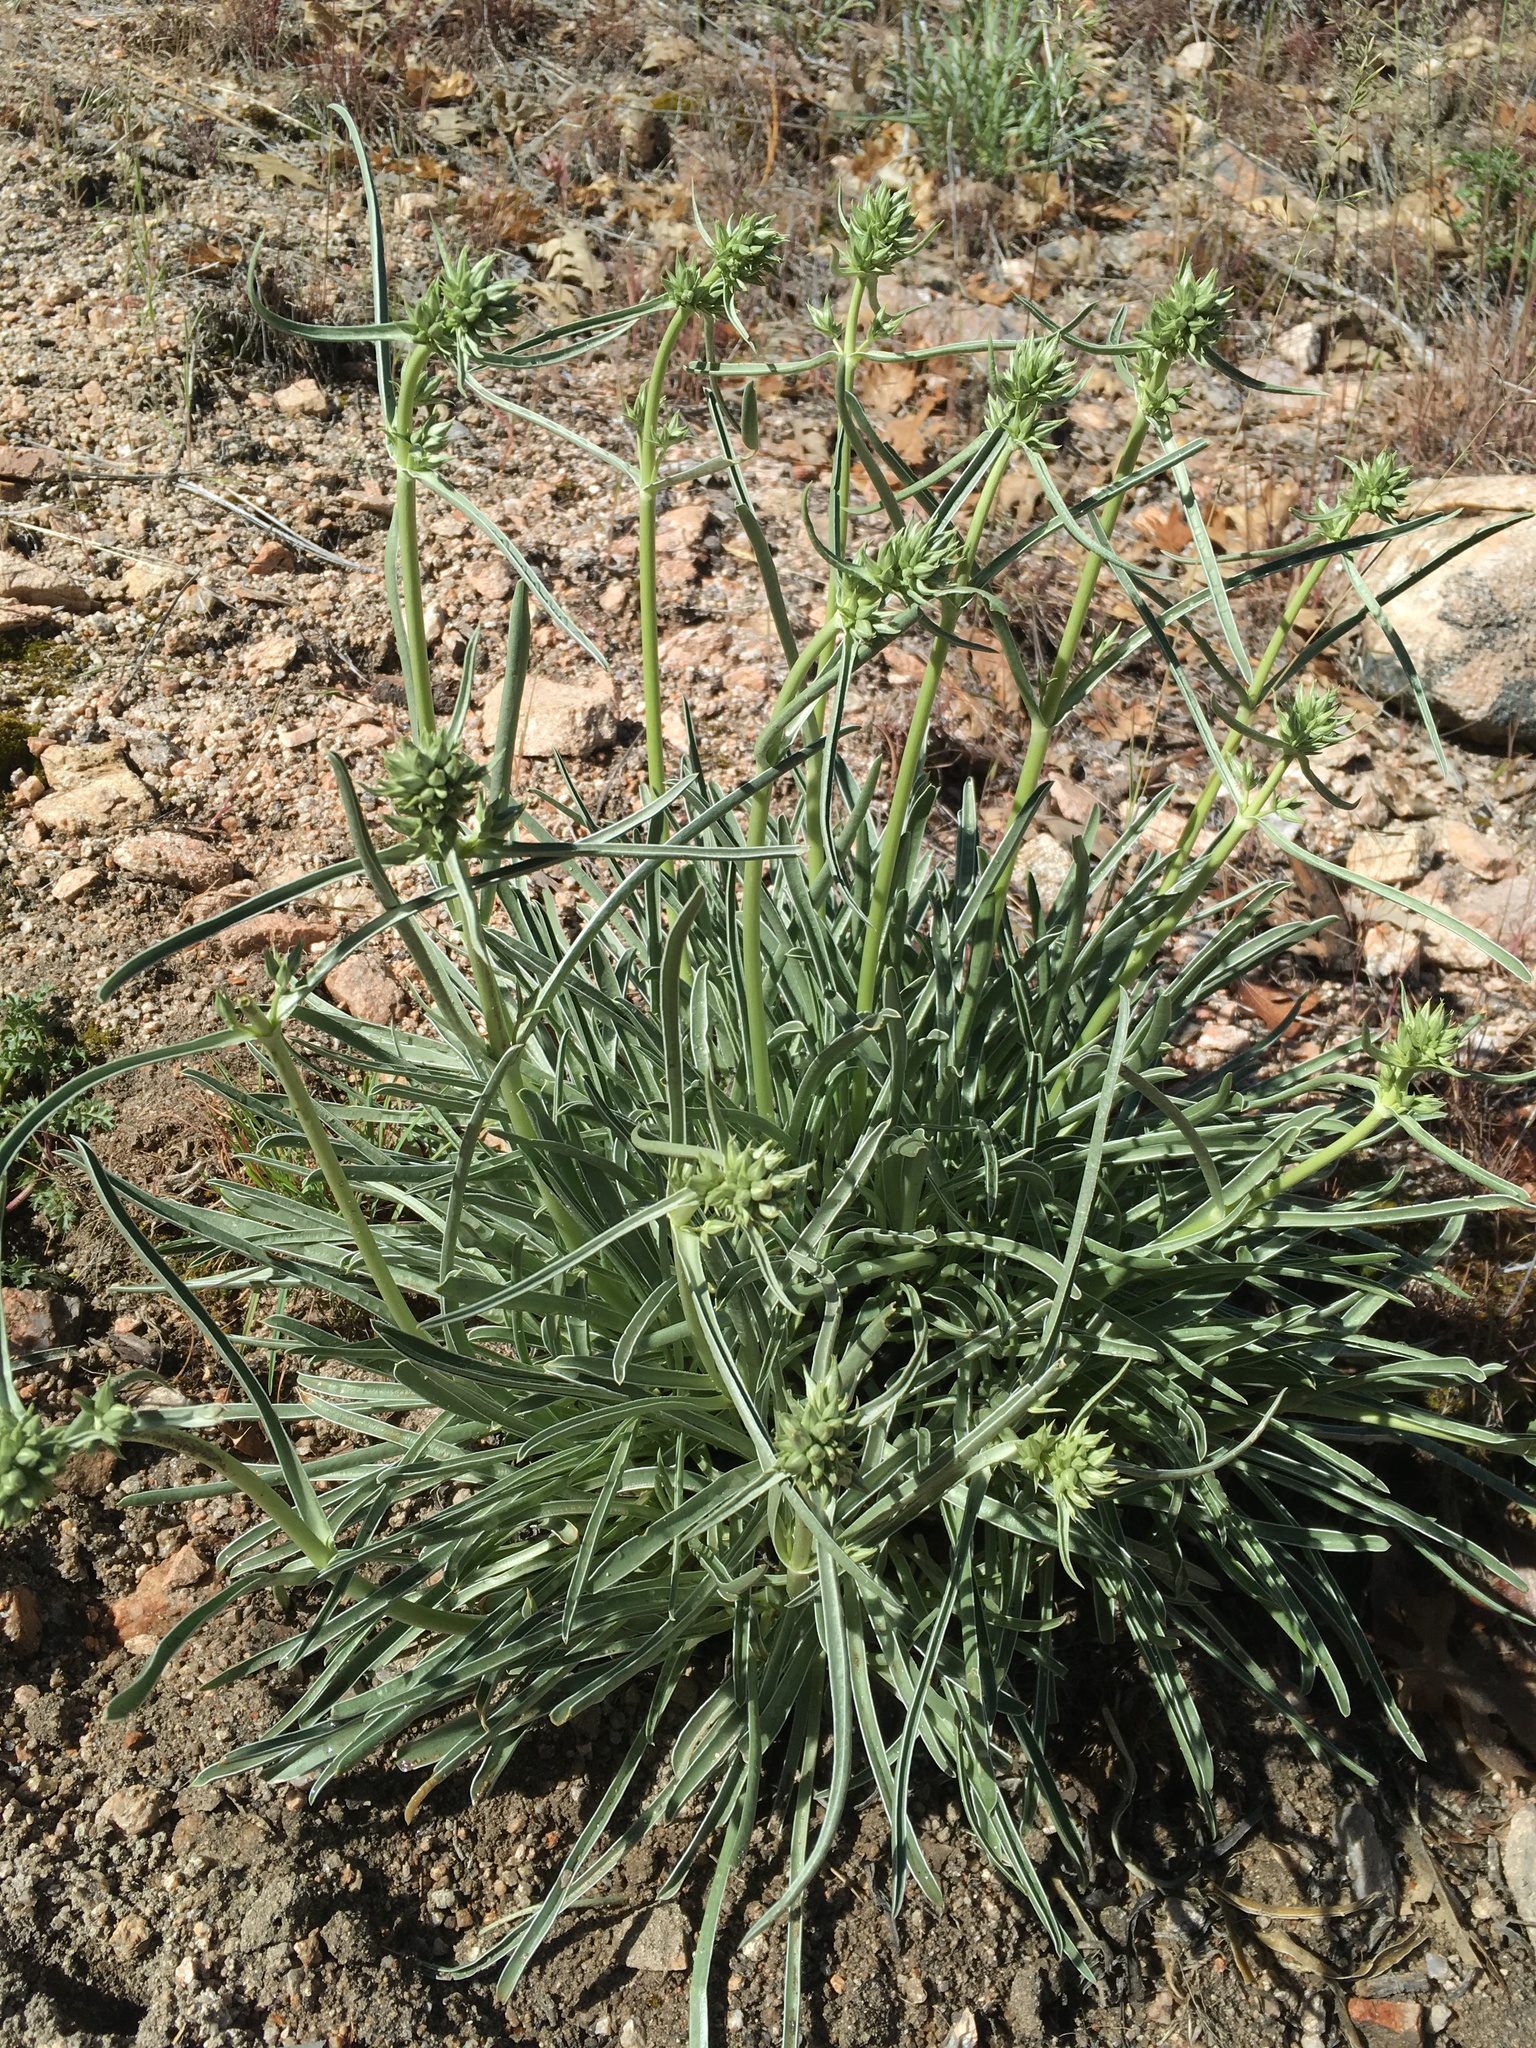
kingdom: Plantae
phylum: Tracheophyta
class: Magnoliopsida
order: Gentianales
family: Gentianaceae
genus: Frasera
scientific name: Frasera neglecta
